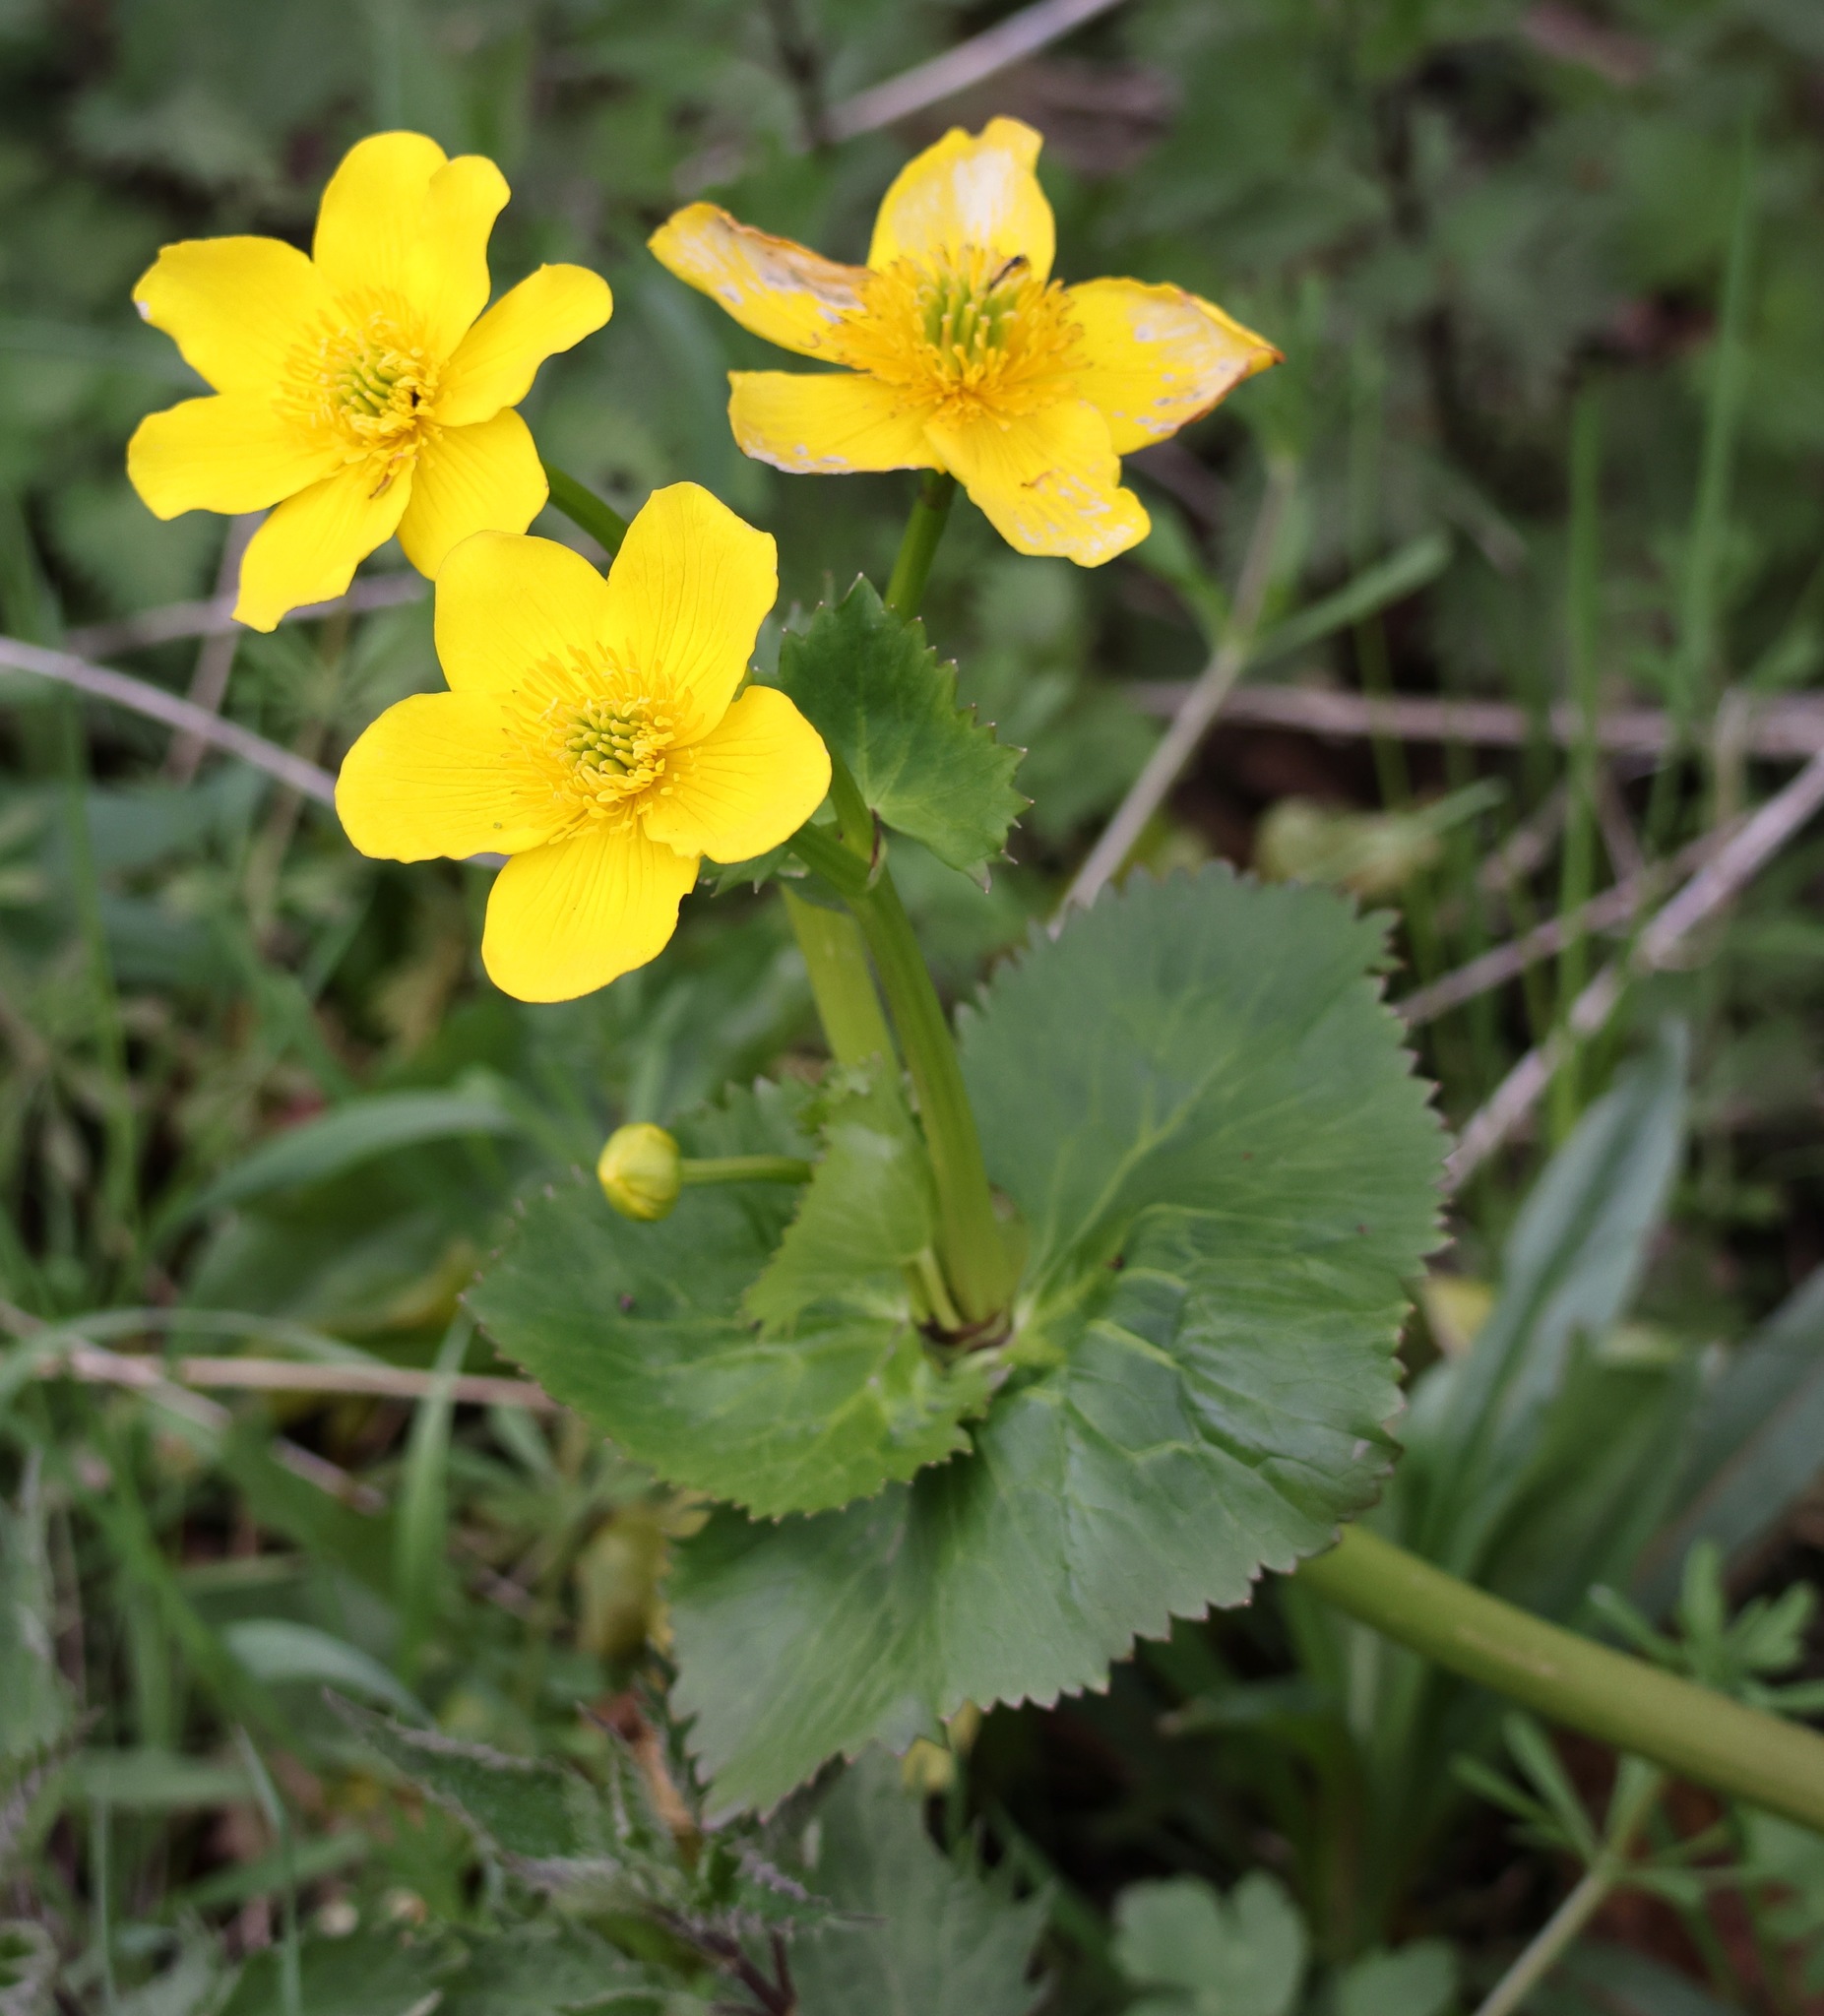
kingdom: Plantae
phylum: Tracheophyta
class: Magnoliopsida
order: Ranunculales
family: Ranunculaceae
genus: Caltha
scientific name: Caltha palustris
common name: Marsh marigold
